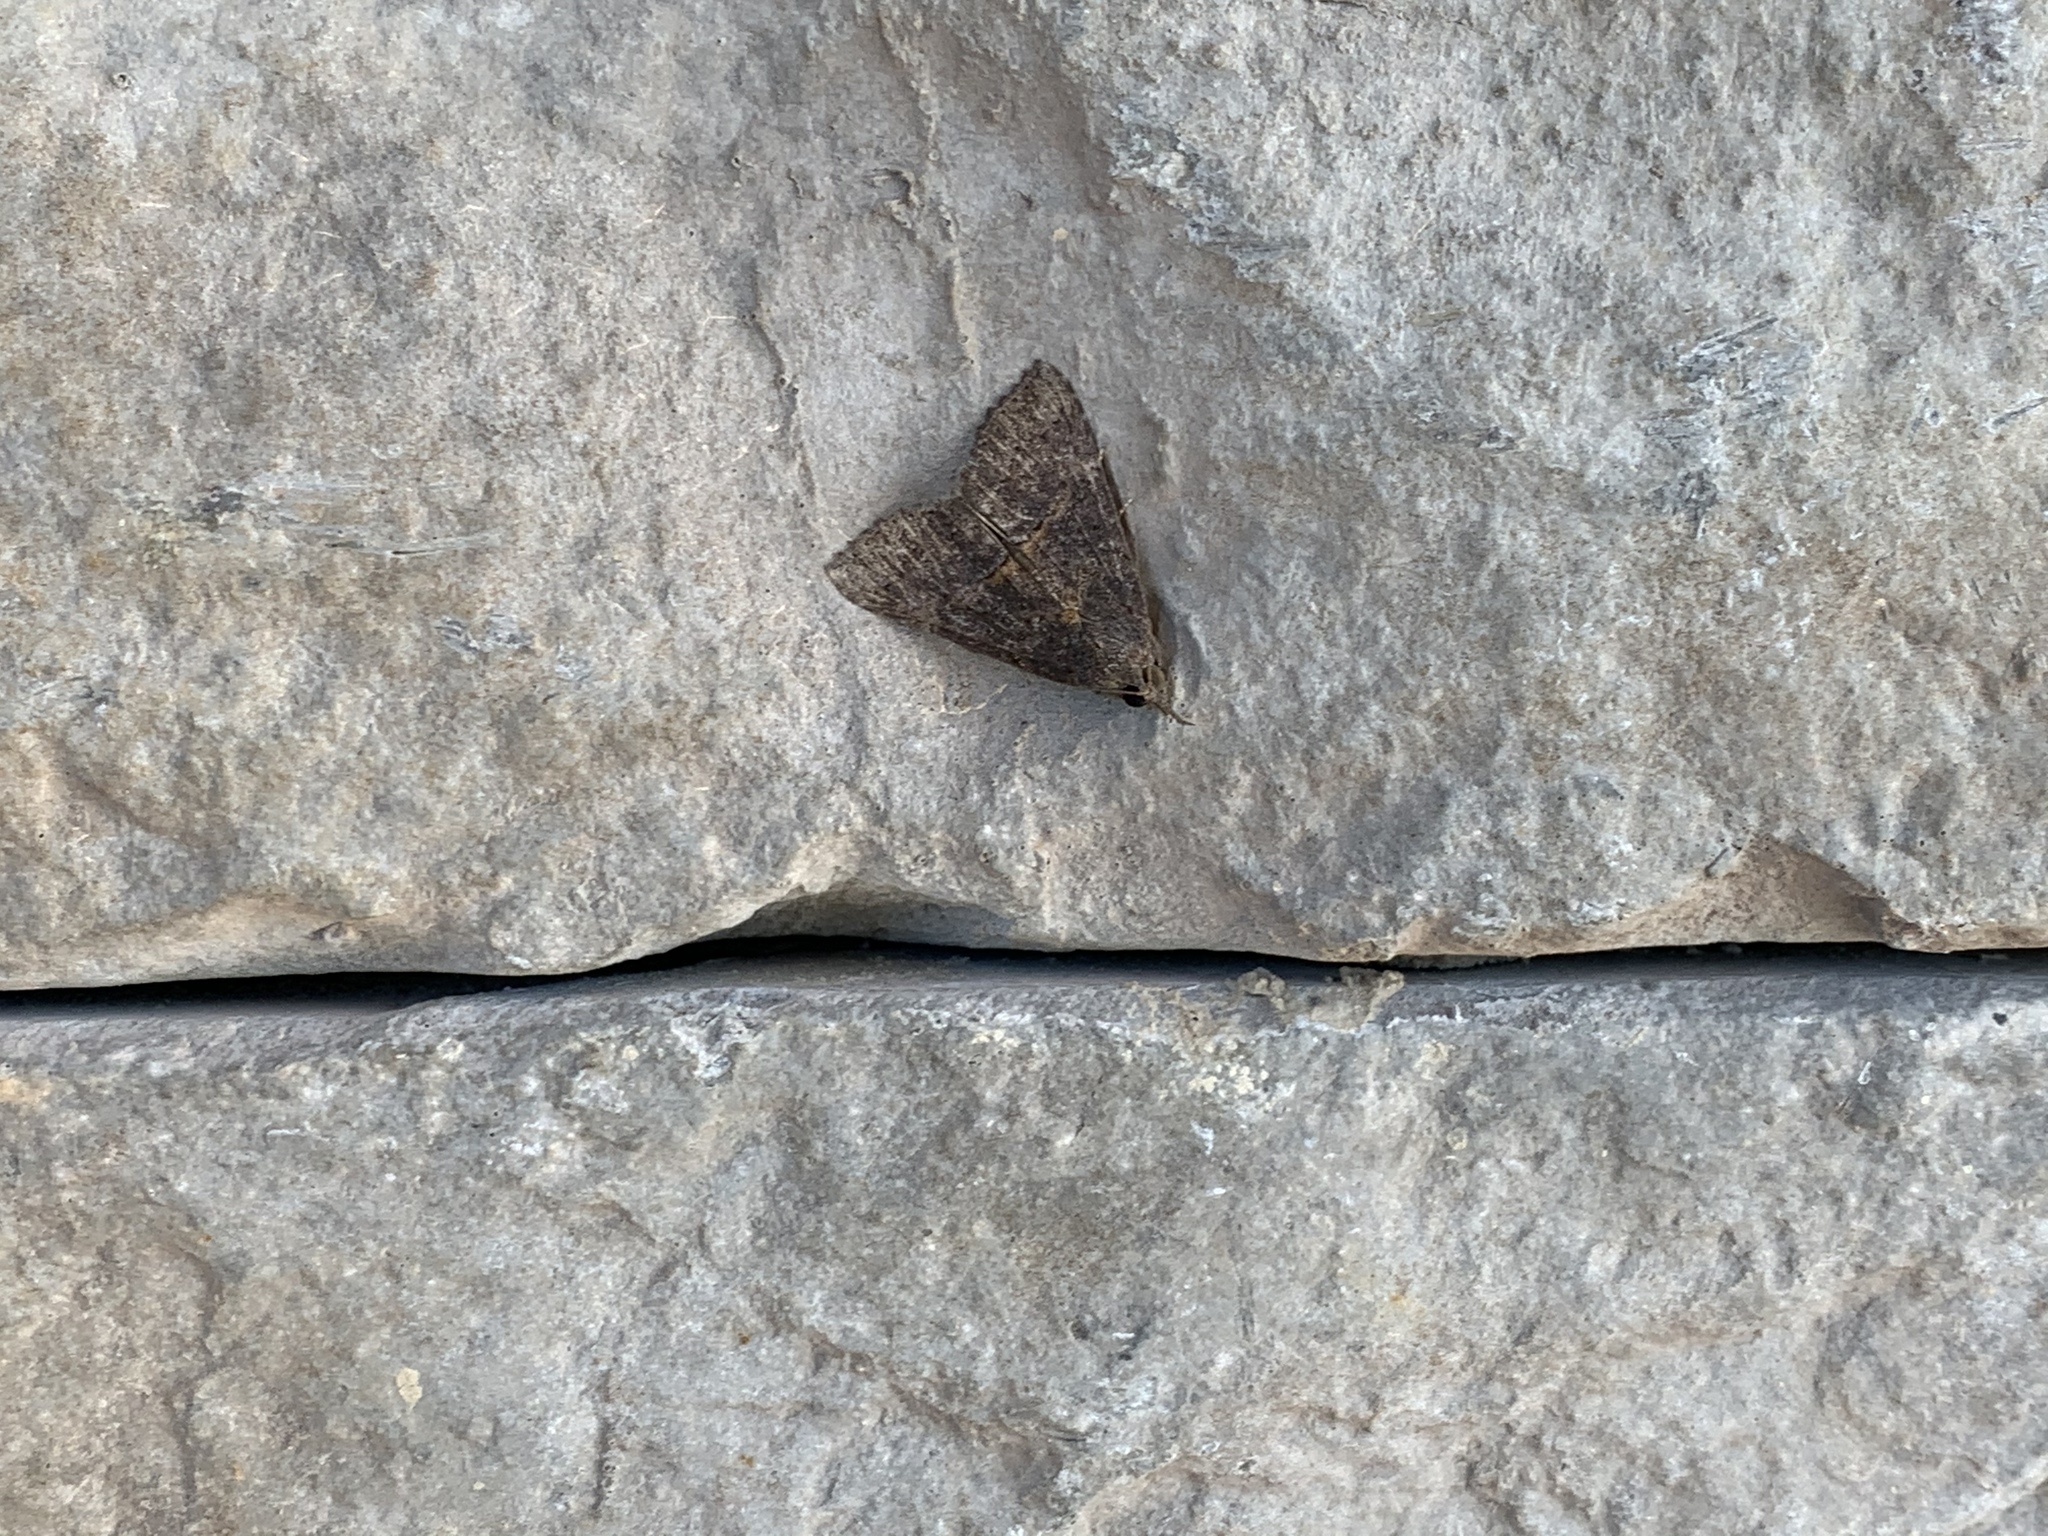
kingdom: Animalia
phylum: Arthropoda
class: Insecta
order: Lepidoptera
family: Erebidae
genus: Hypena
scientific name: Hypena scabra
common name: Green cloverworm
